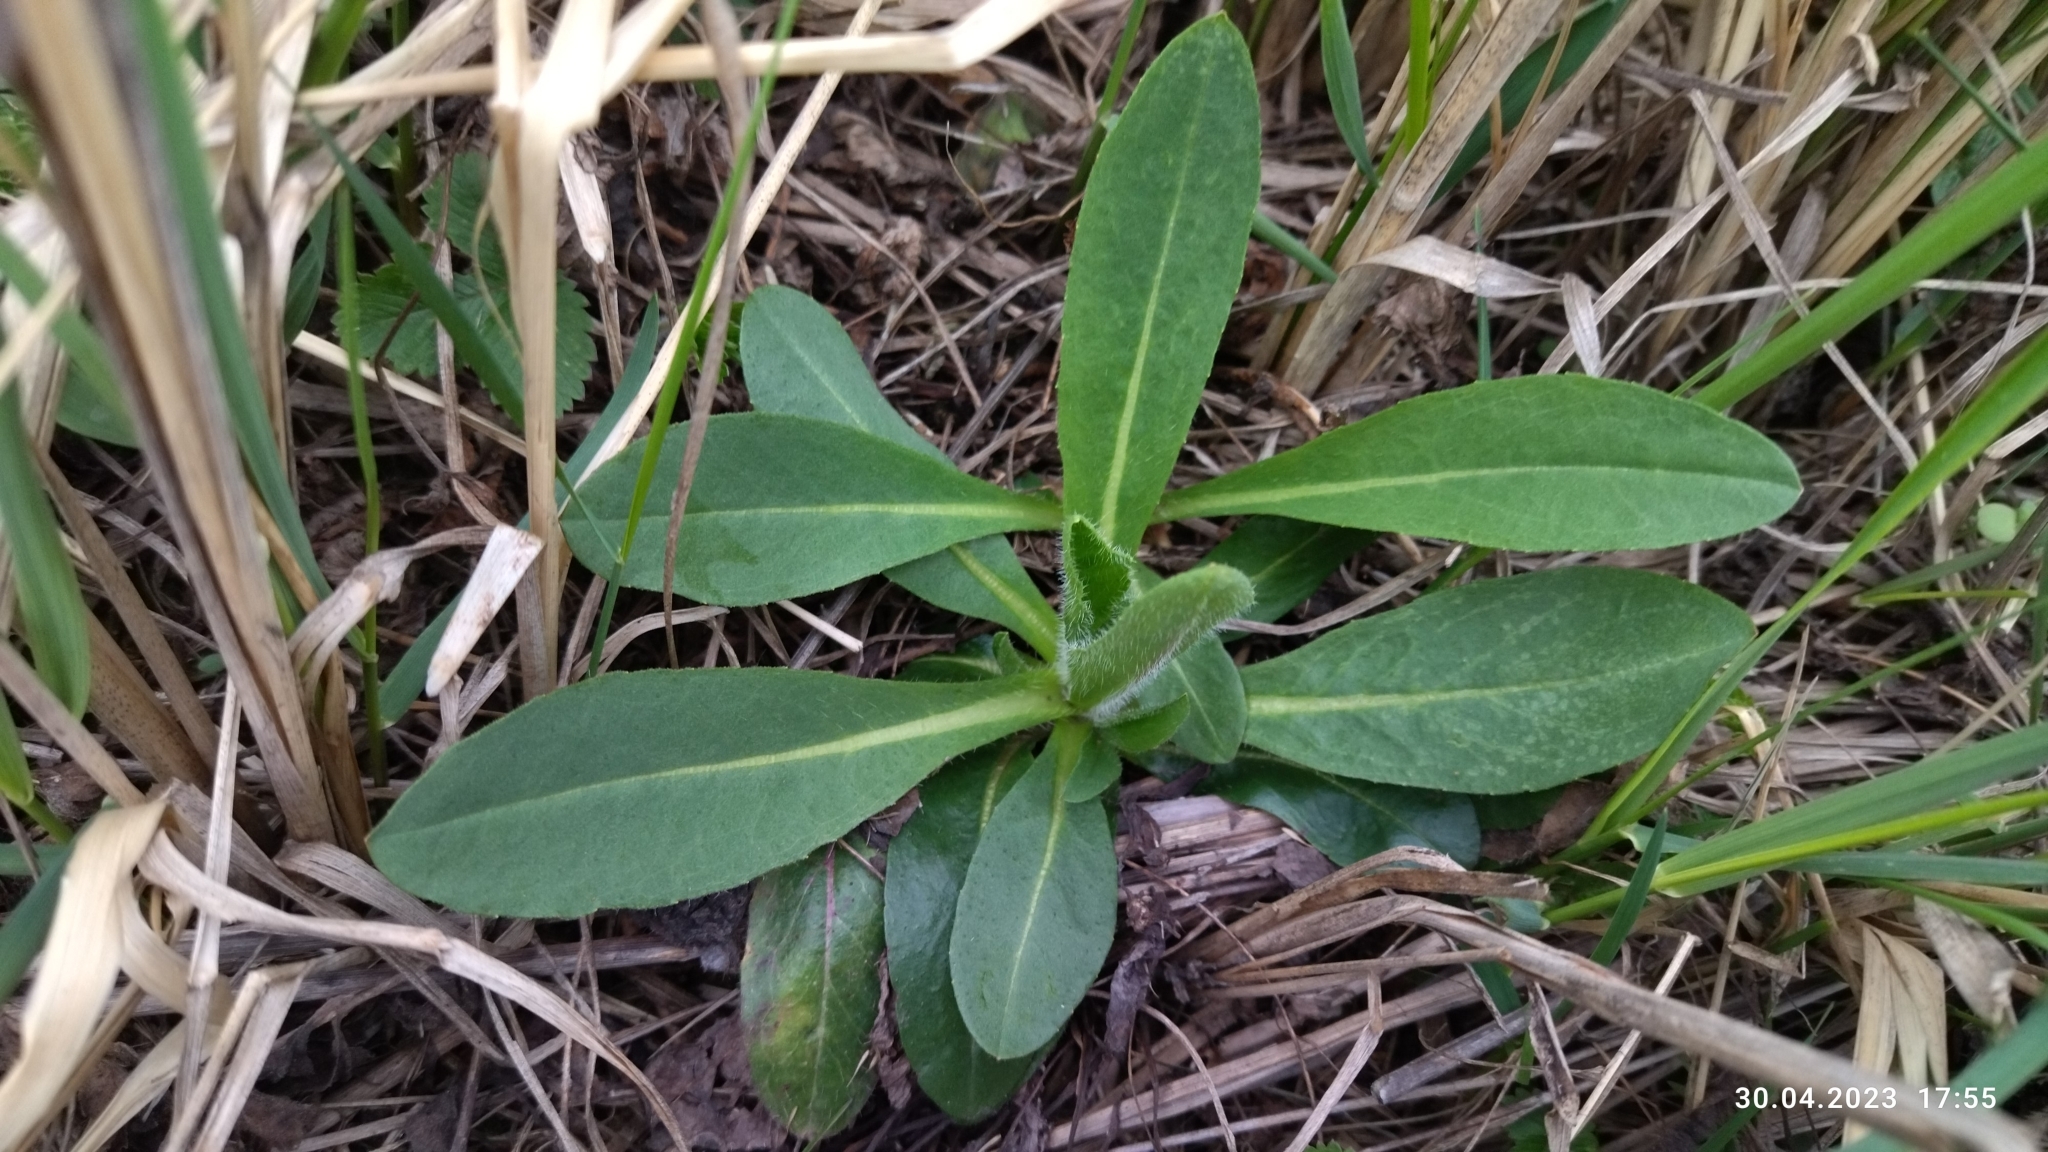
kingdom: Plantae
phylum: Tracheophyta
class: Magnoliopsida
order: Dipsacales
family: Caprifoliaceae
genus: Succisa
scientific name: Succisa pratensis
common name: Devil's-bit
